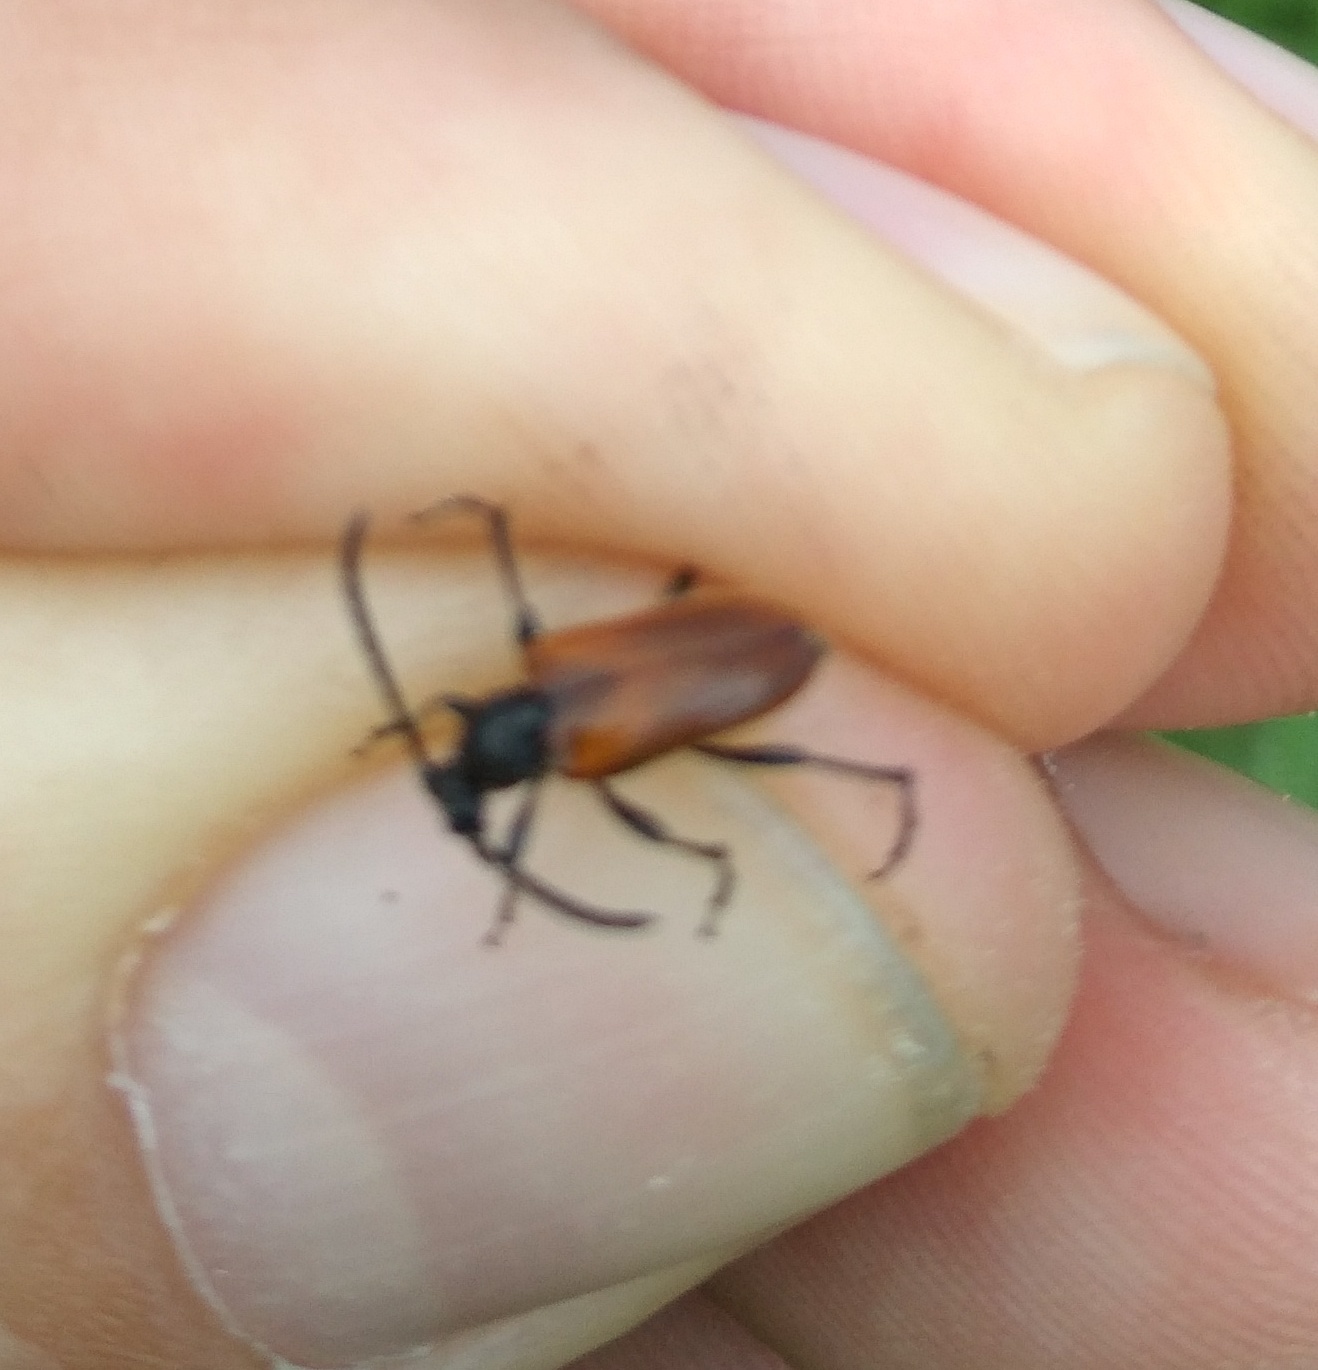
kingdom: Animalia
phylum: Arthropoda
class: Insecta
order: Coleoptera
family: Cerambycidae
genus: Pseudovadonia
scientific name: Pseudovadonia livida
